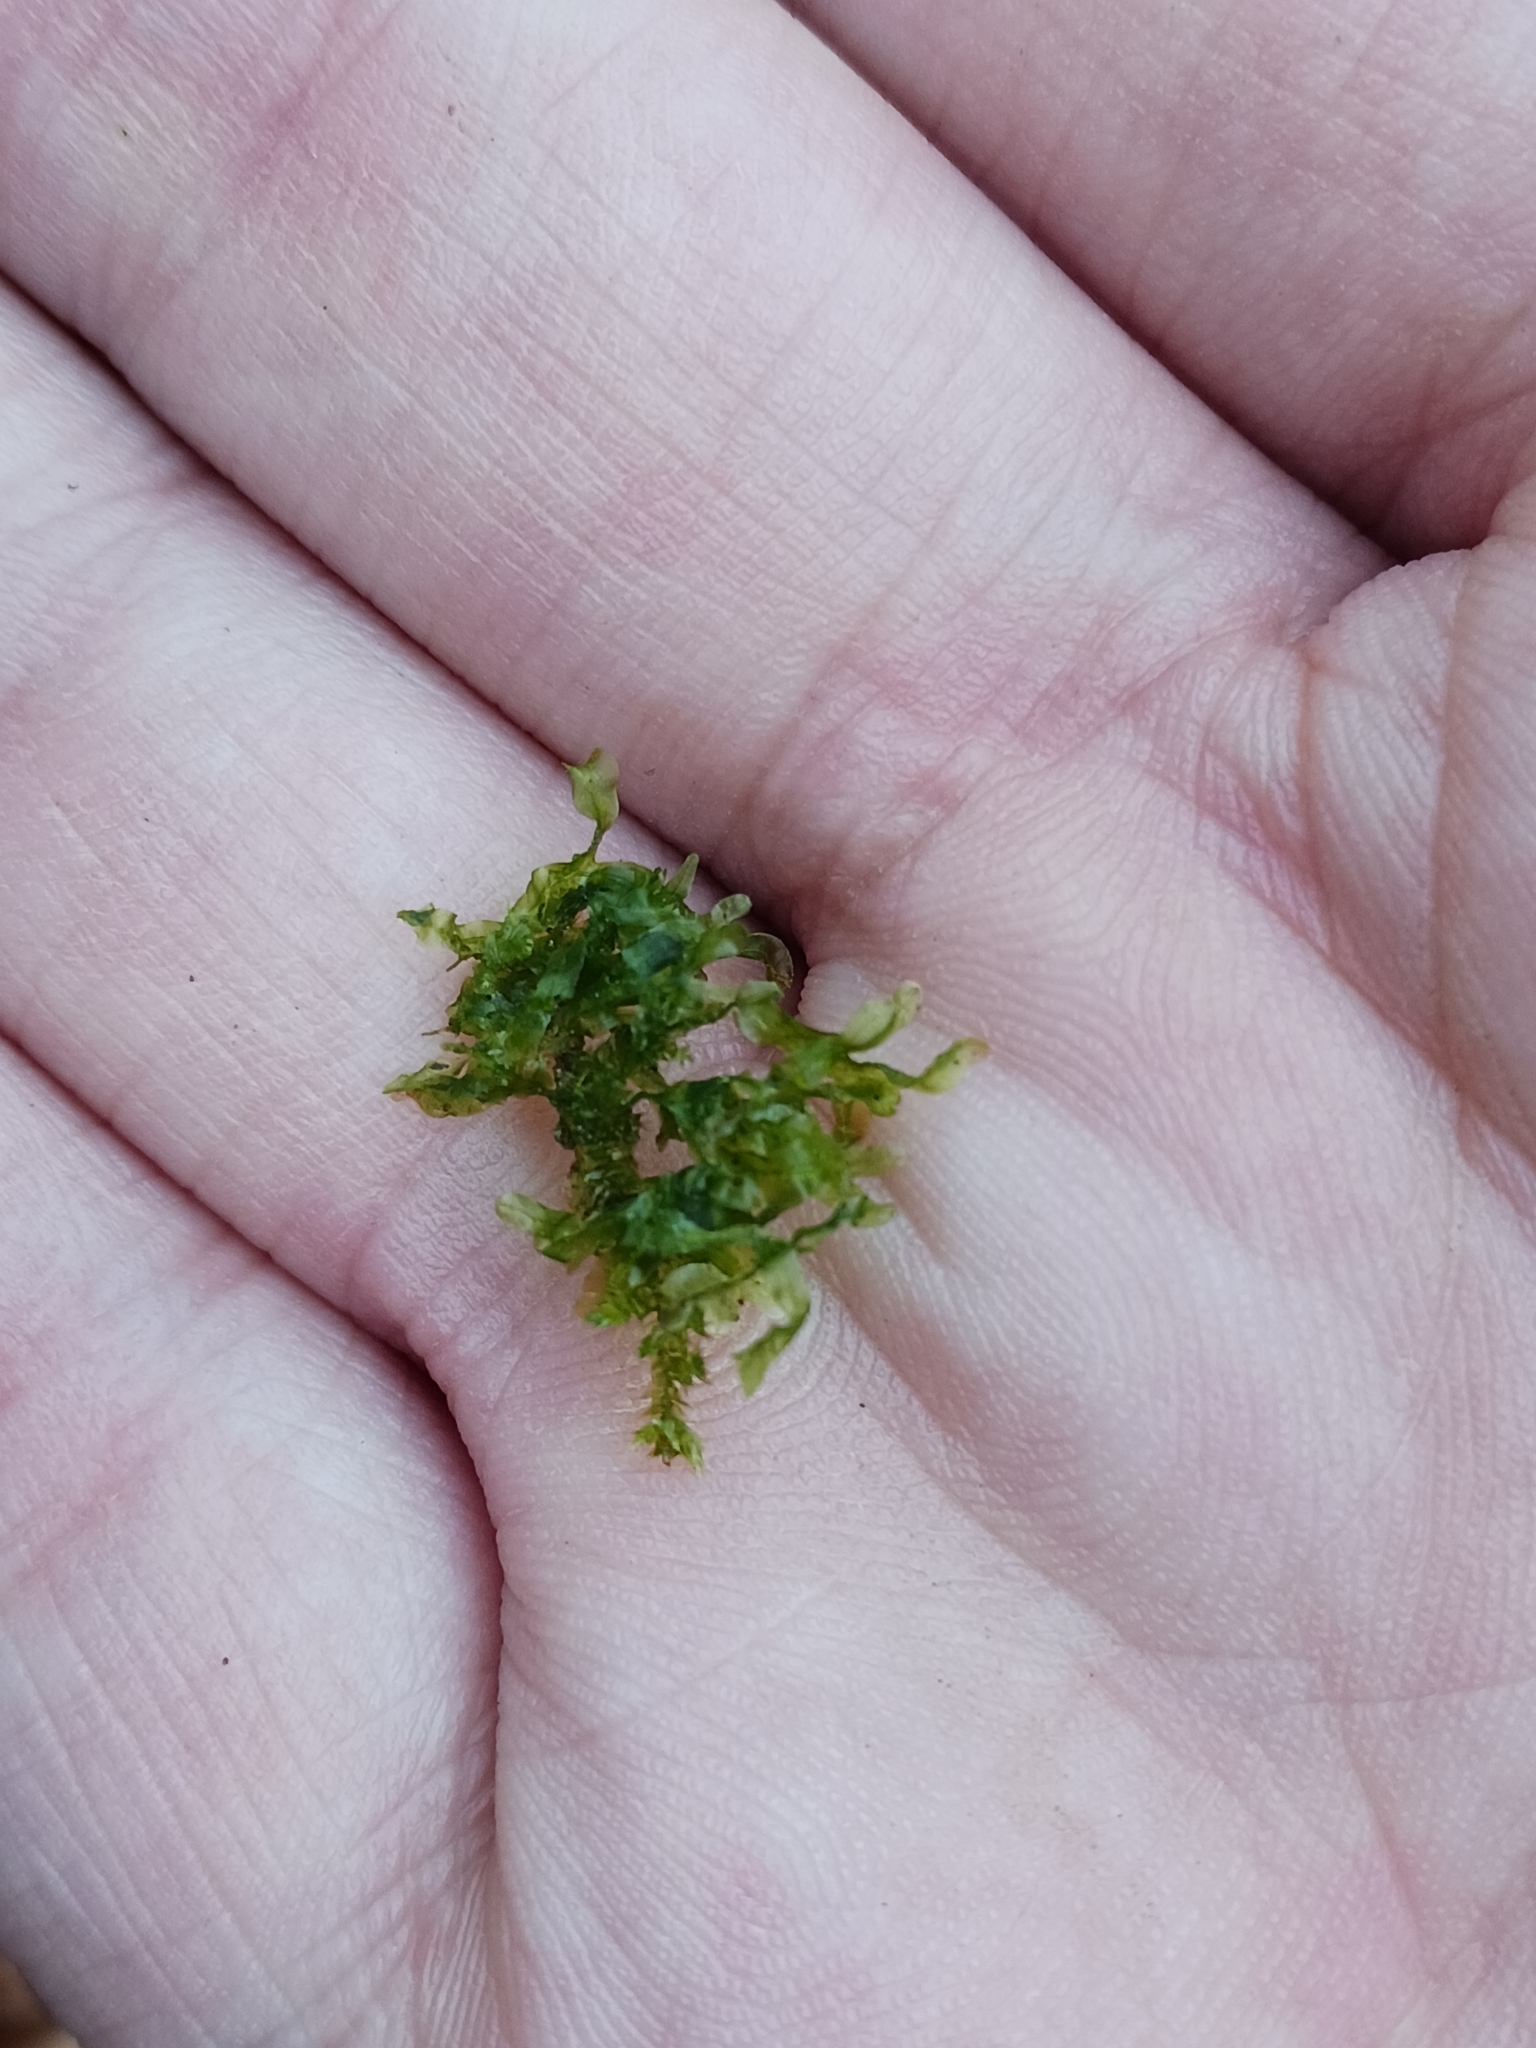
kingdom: Plantae
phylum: Marchantiophyta
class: Jungermanniopsida
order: Metzgeriales
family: Metzgeriaceae
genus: Metzgeria
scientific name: Metzgeria furcata
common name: Forked veilwort
